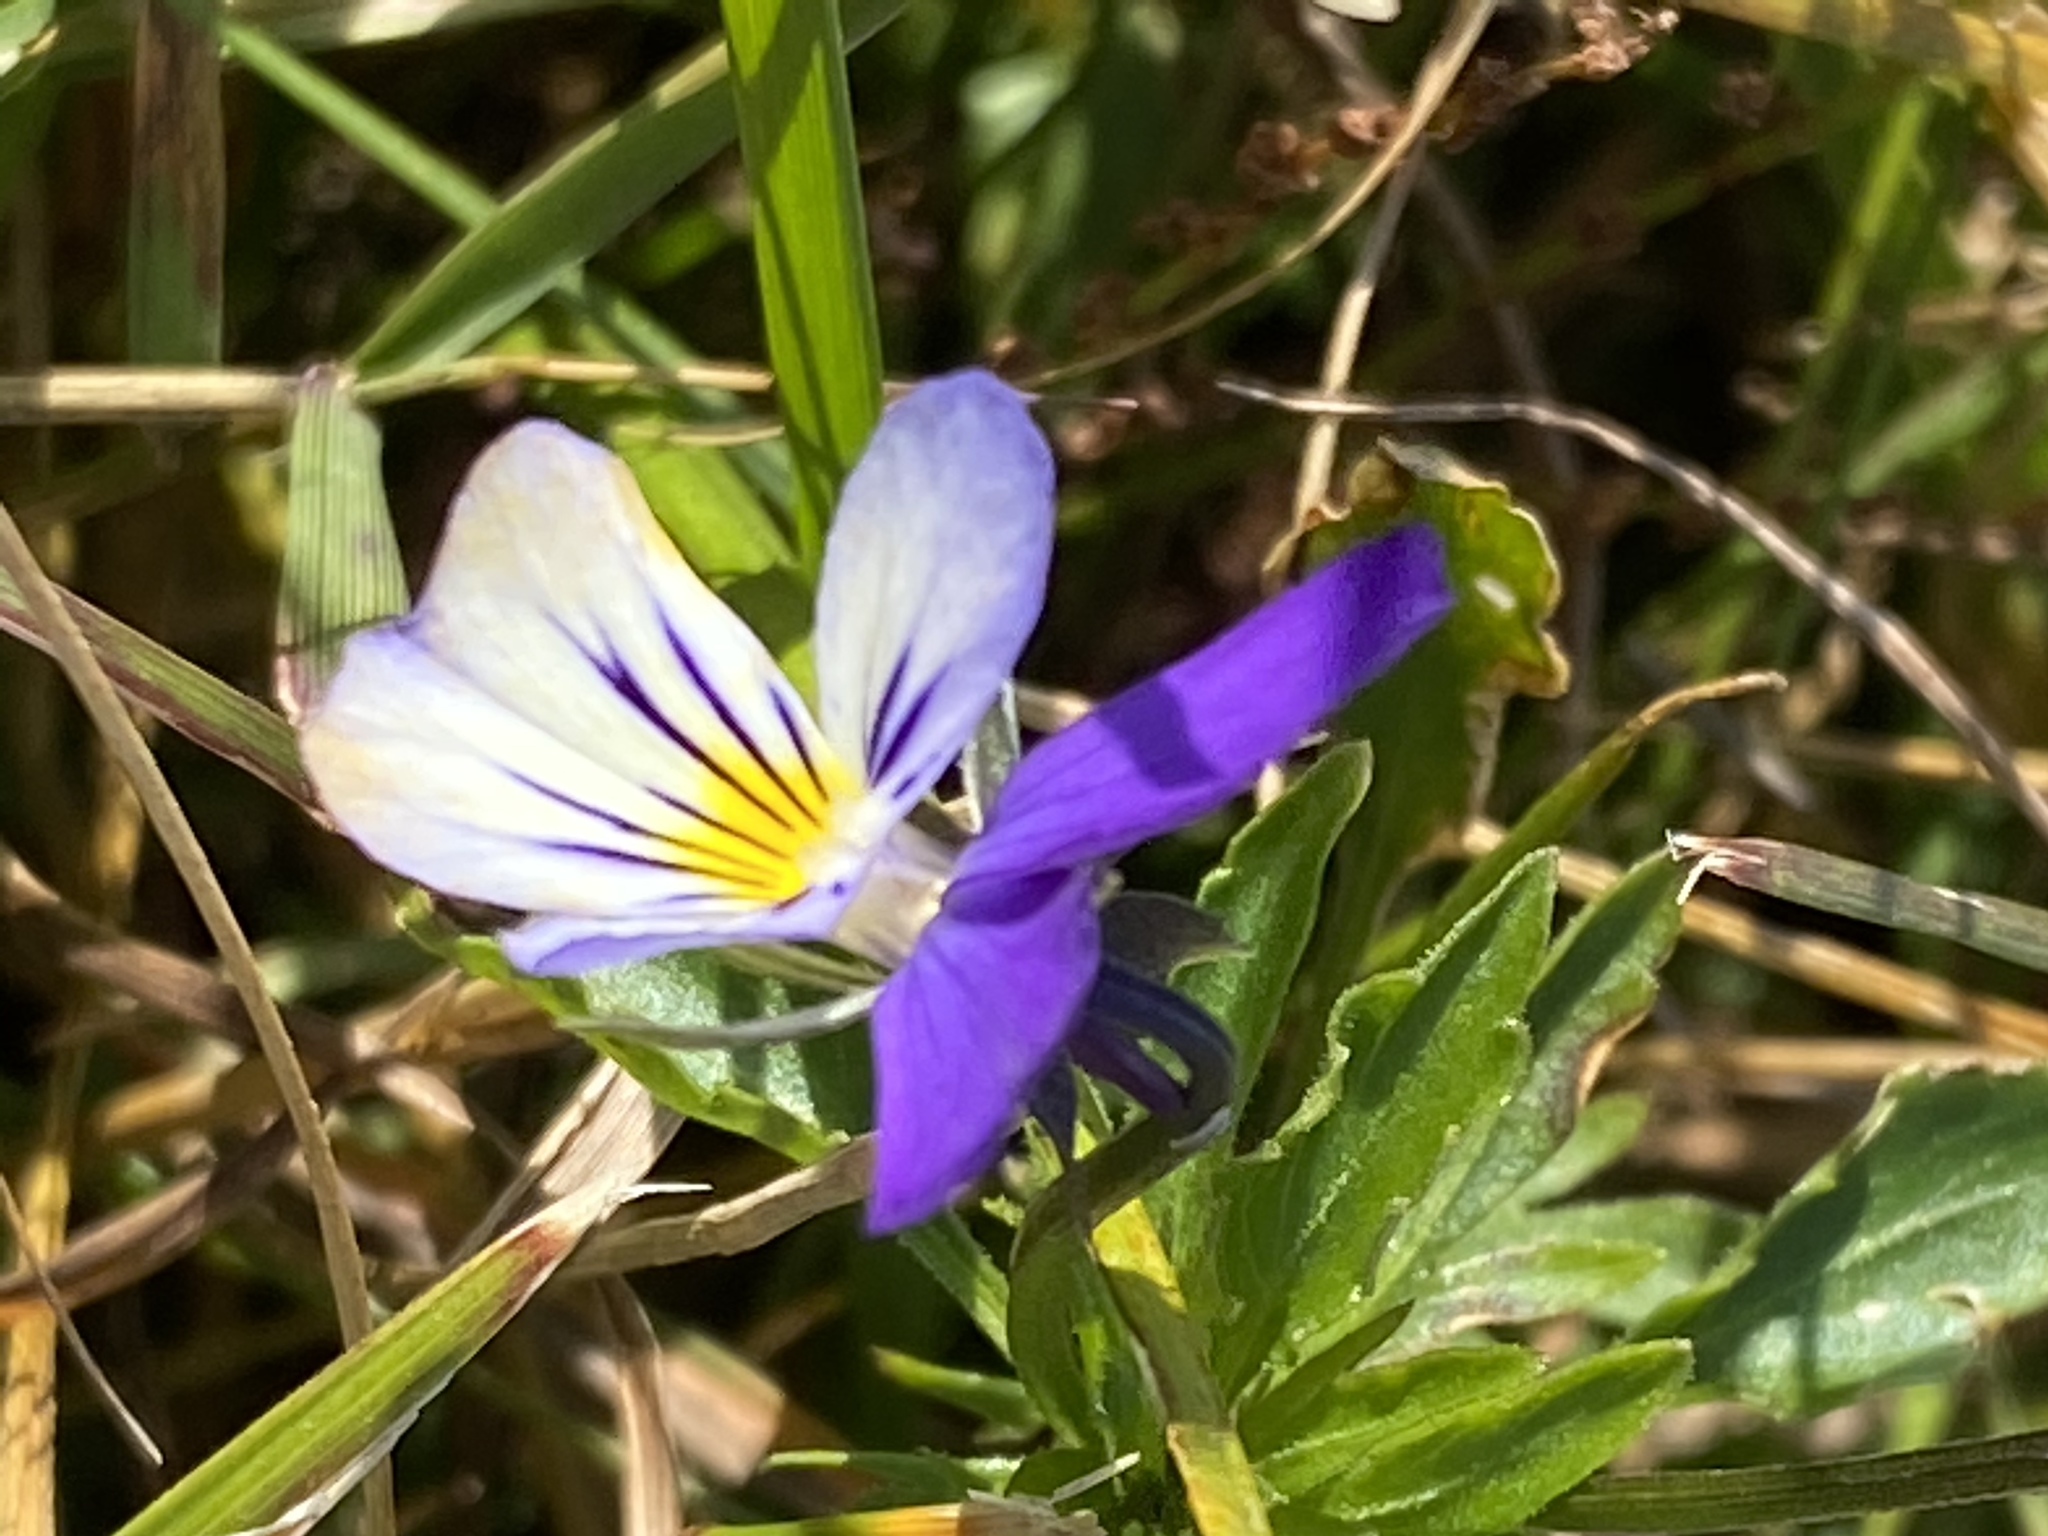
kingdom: Plantae
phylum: Tracheophyta
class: Magnoliopsida
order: Malpighiales
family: Violaceae
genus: Viola
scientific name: Viola tricolor
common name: Pansy
